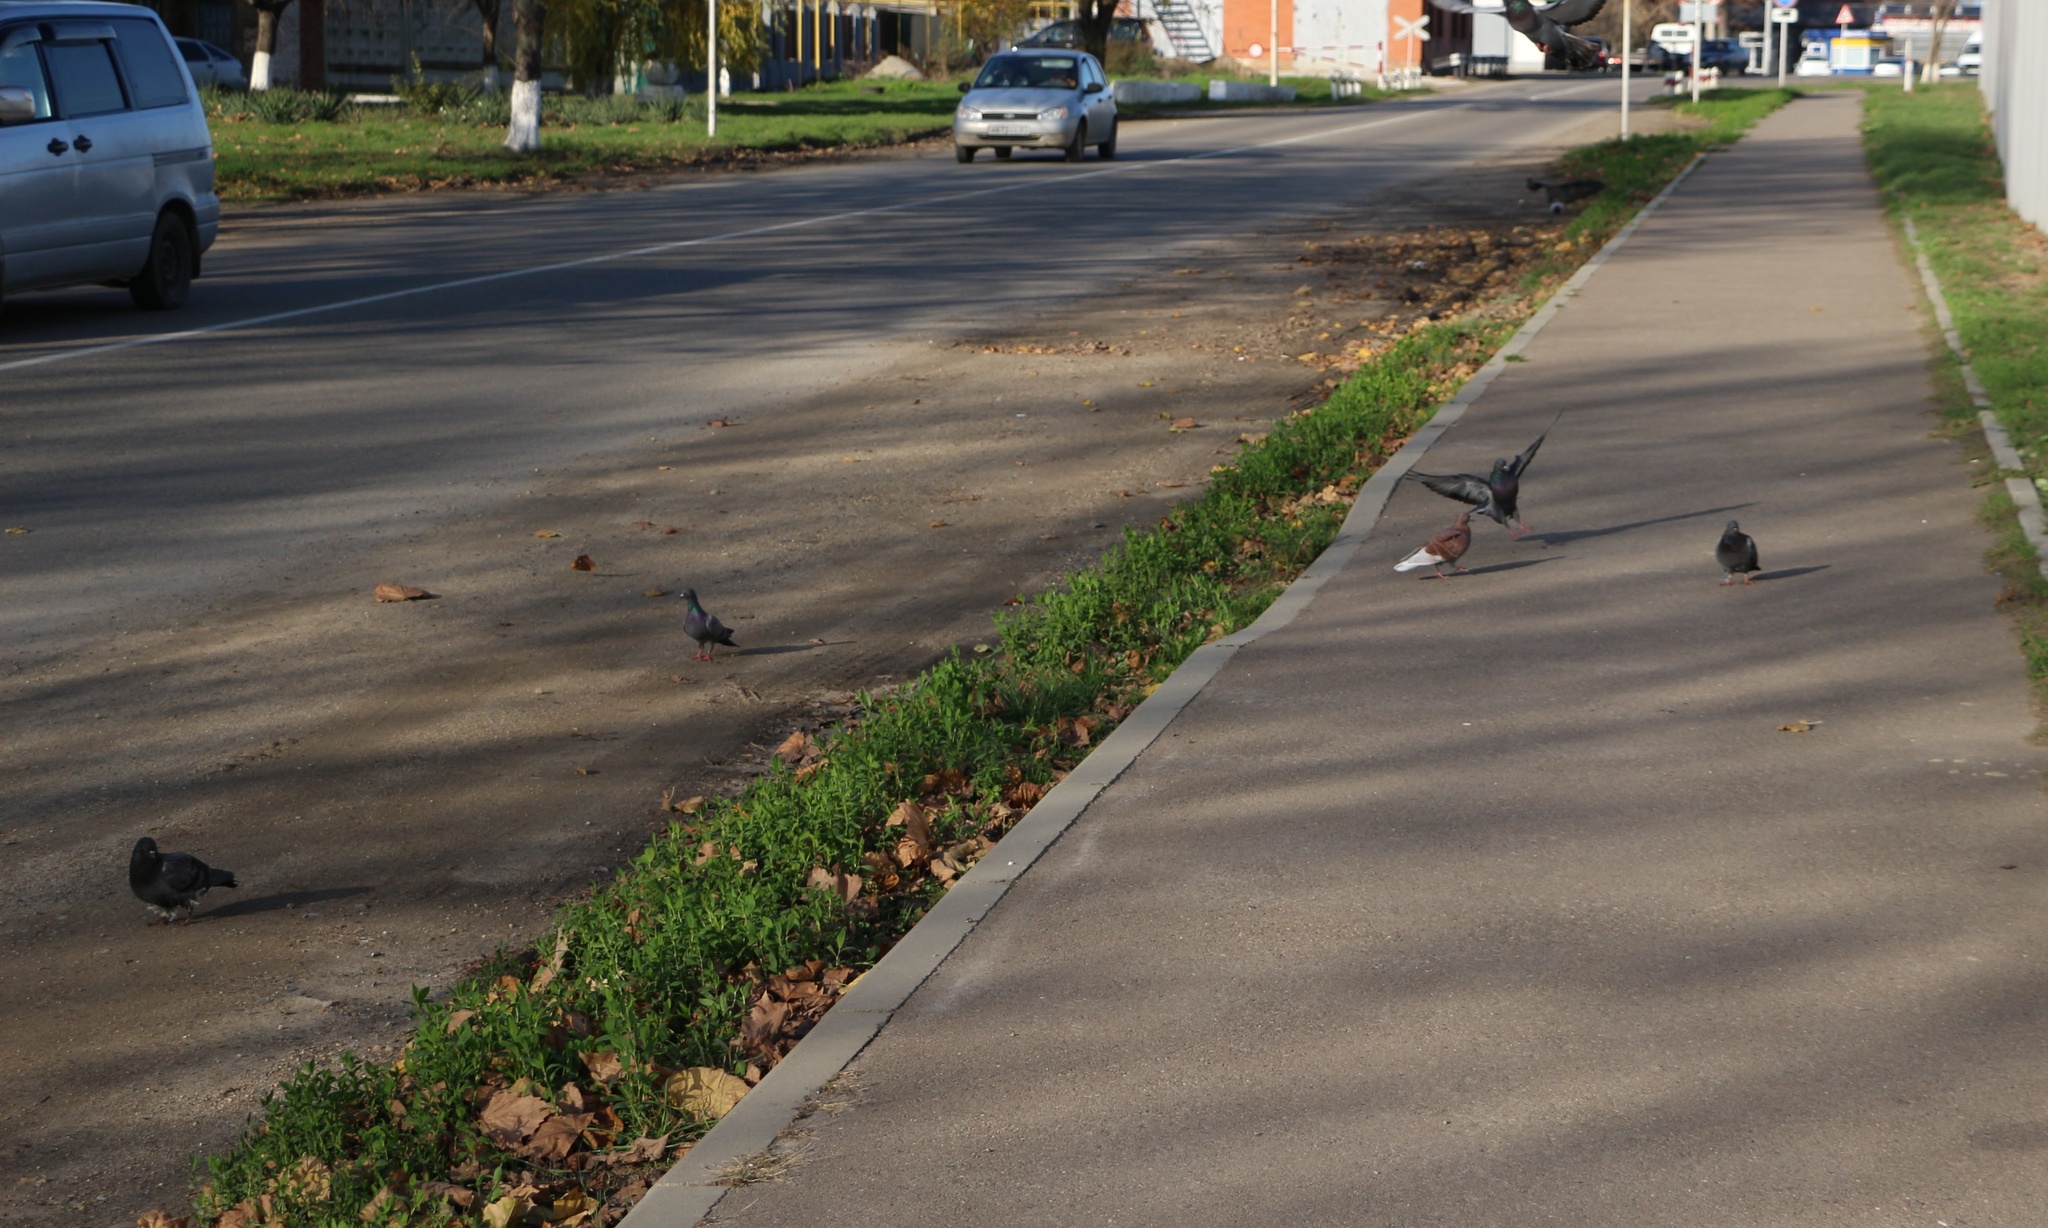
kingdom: Animalia
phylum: Chordata
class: Aves
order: Columbiformes
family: Columbidae
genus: Columba
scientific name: Columba livia
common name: Rock pigeon
